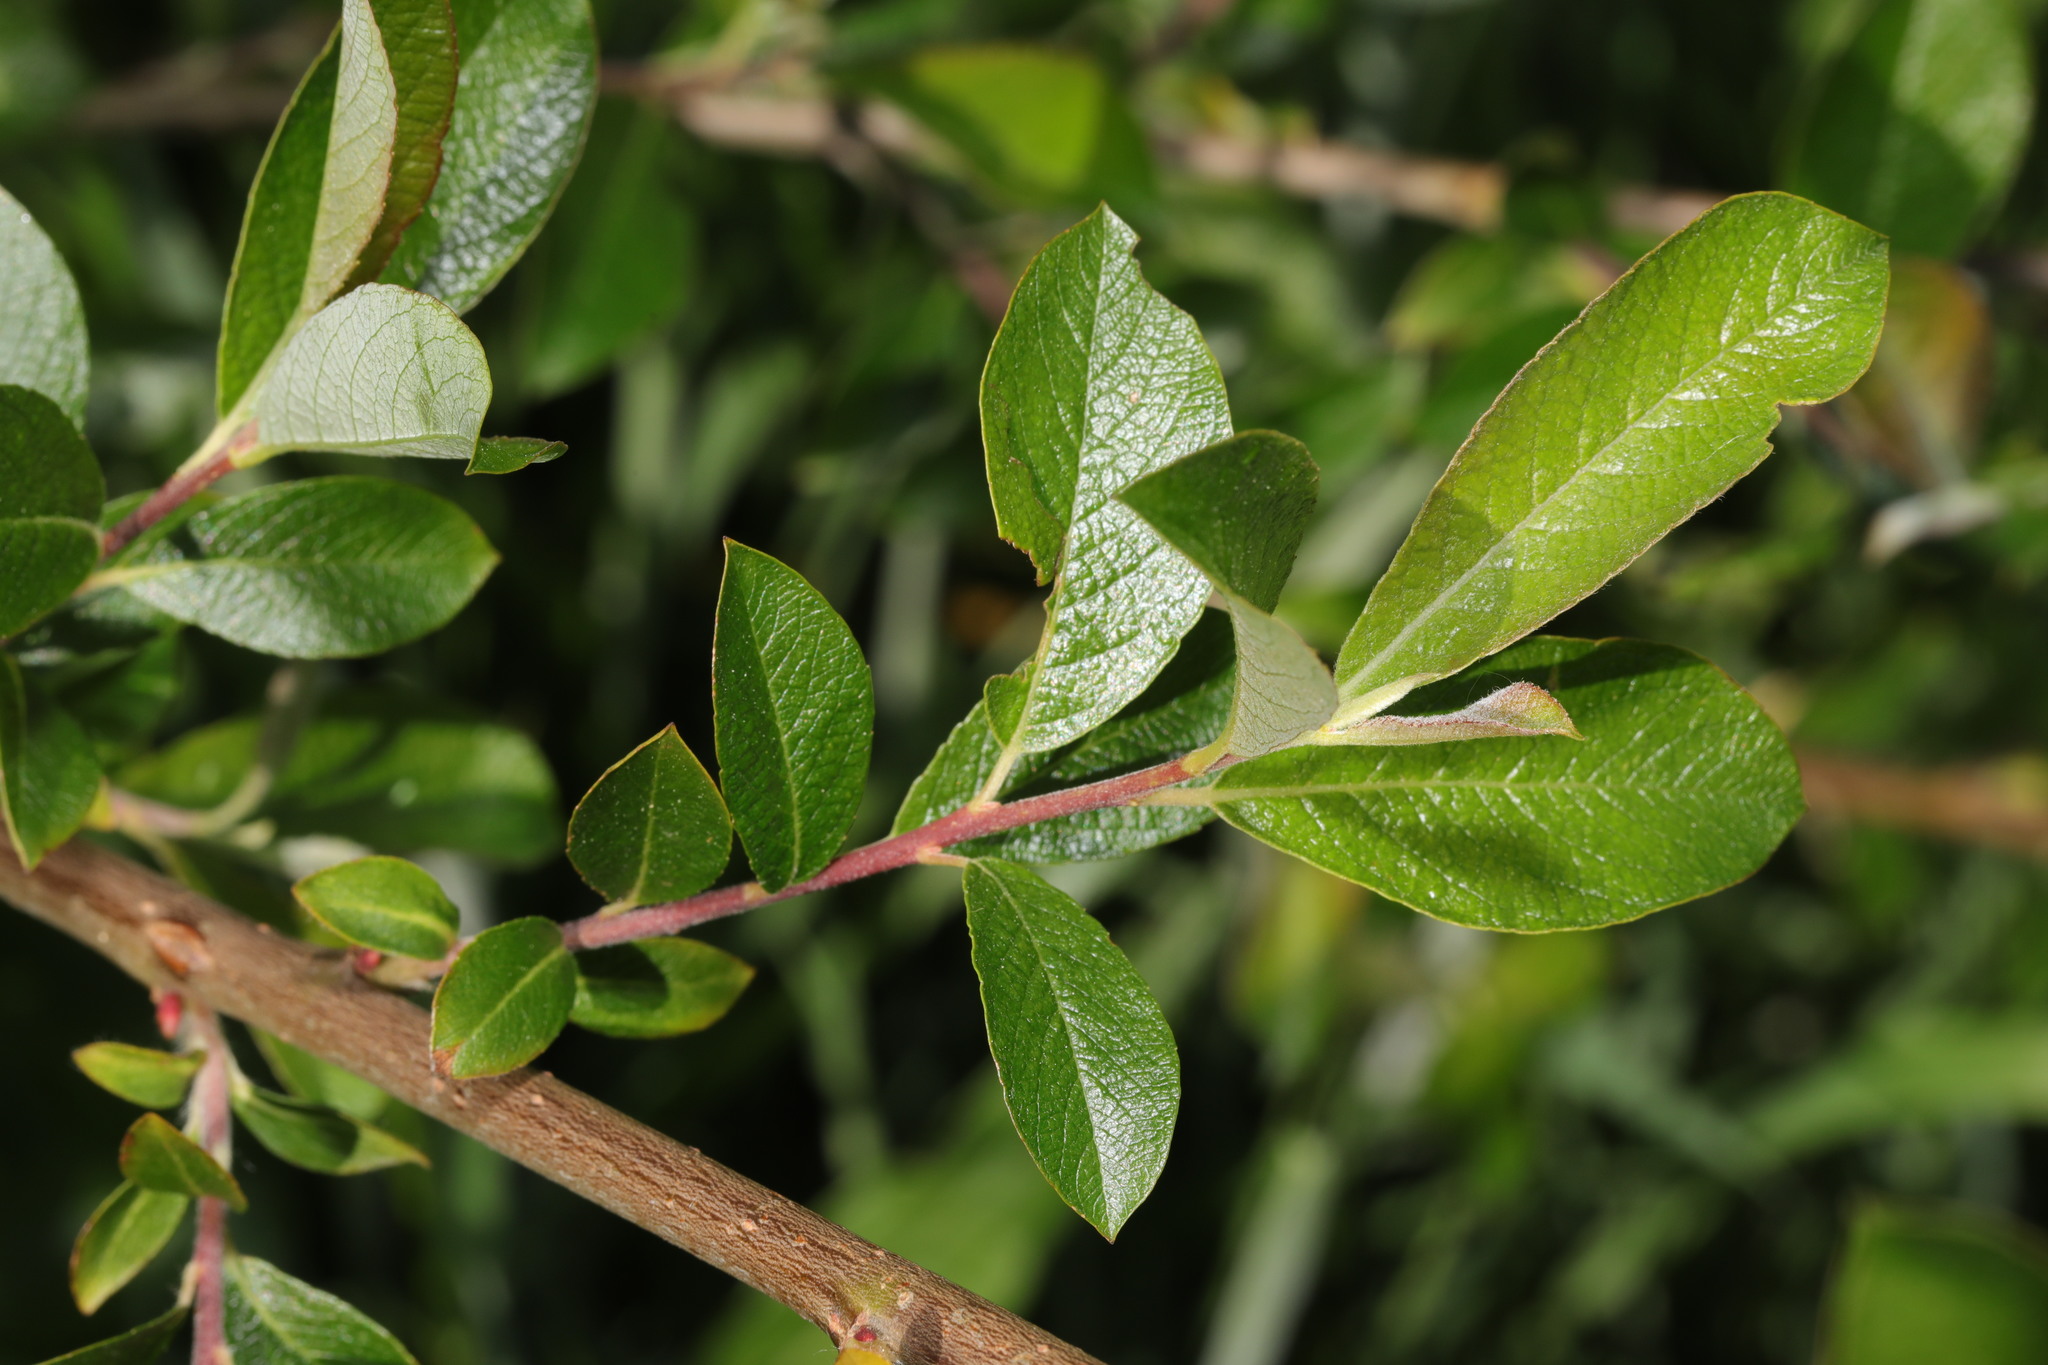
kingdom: Plantae
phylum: Tracheophyta
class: Magnoliopsida
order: Malpighiales
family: Salicaceae
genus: Salix
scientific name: Salix cinerea
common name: Common sallow
